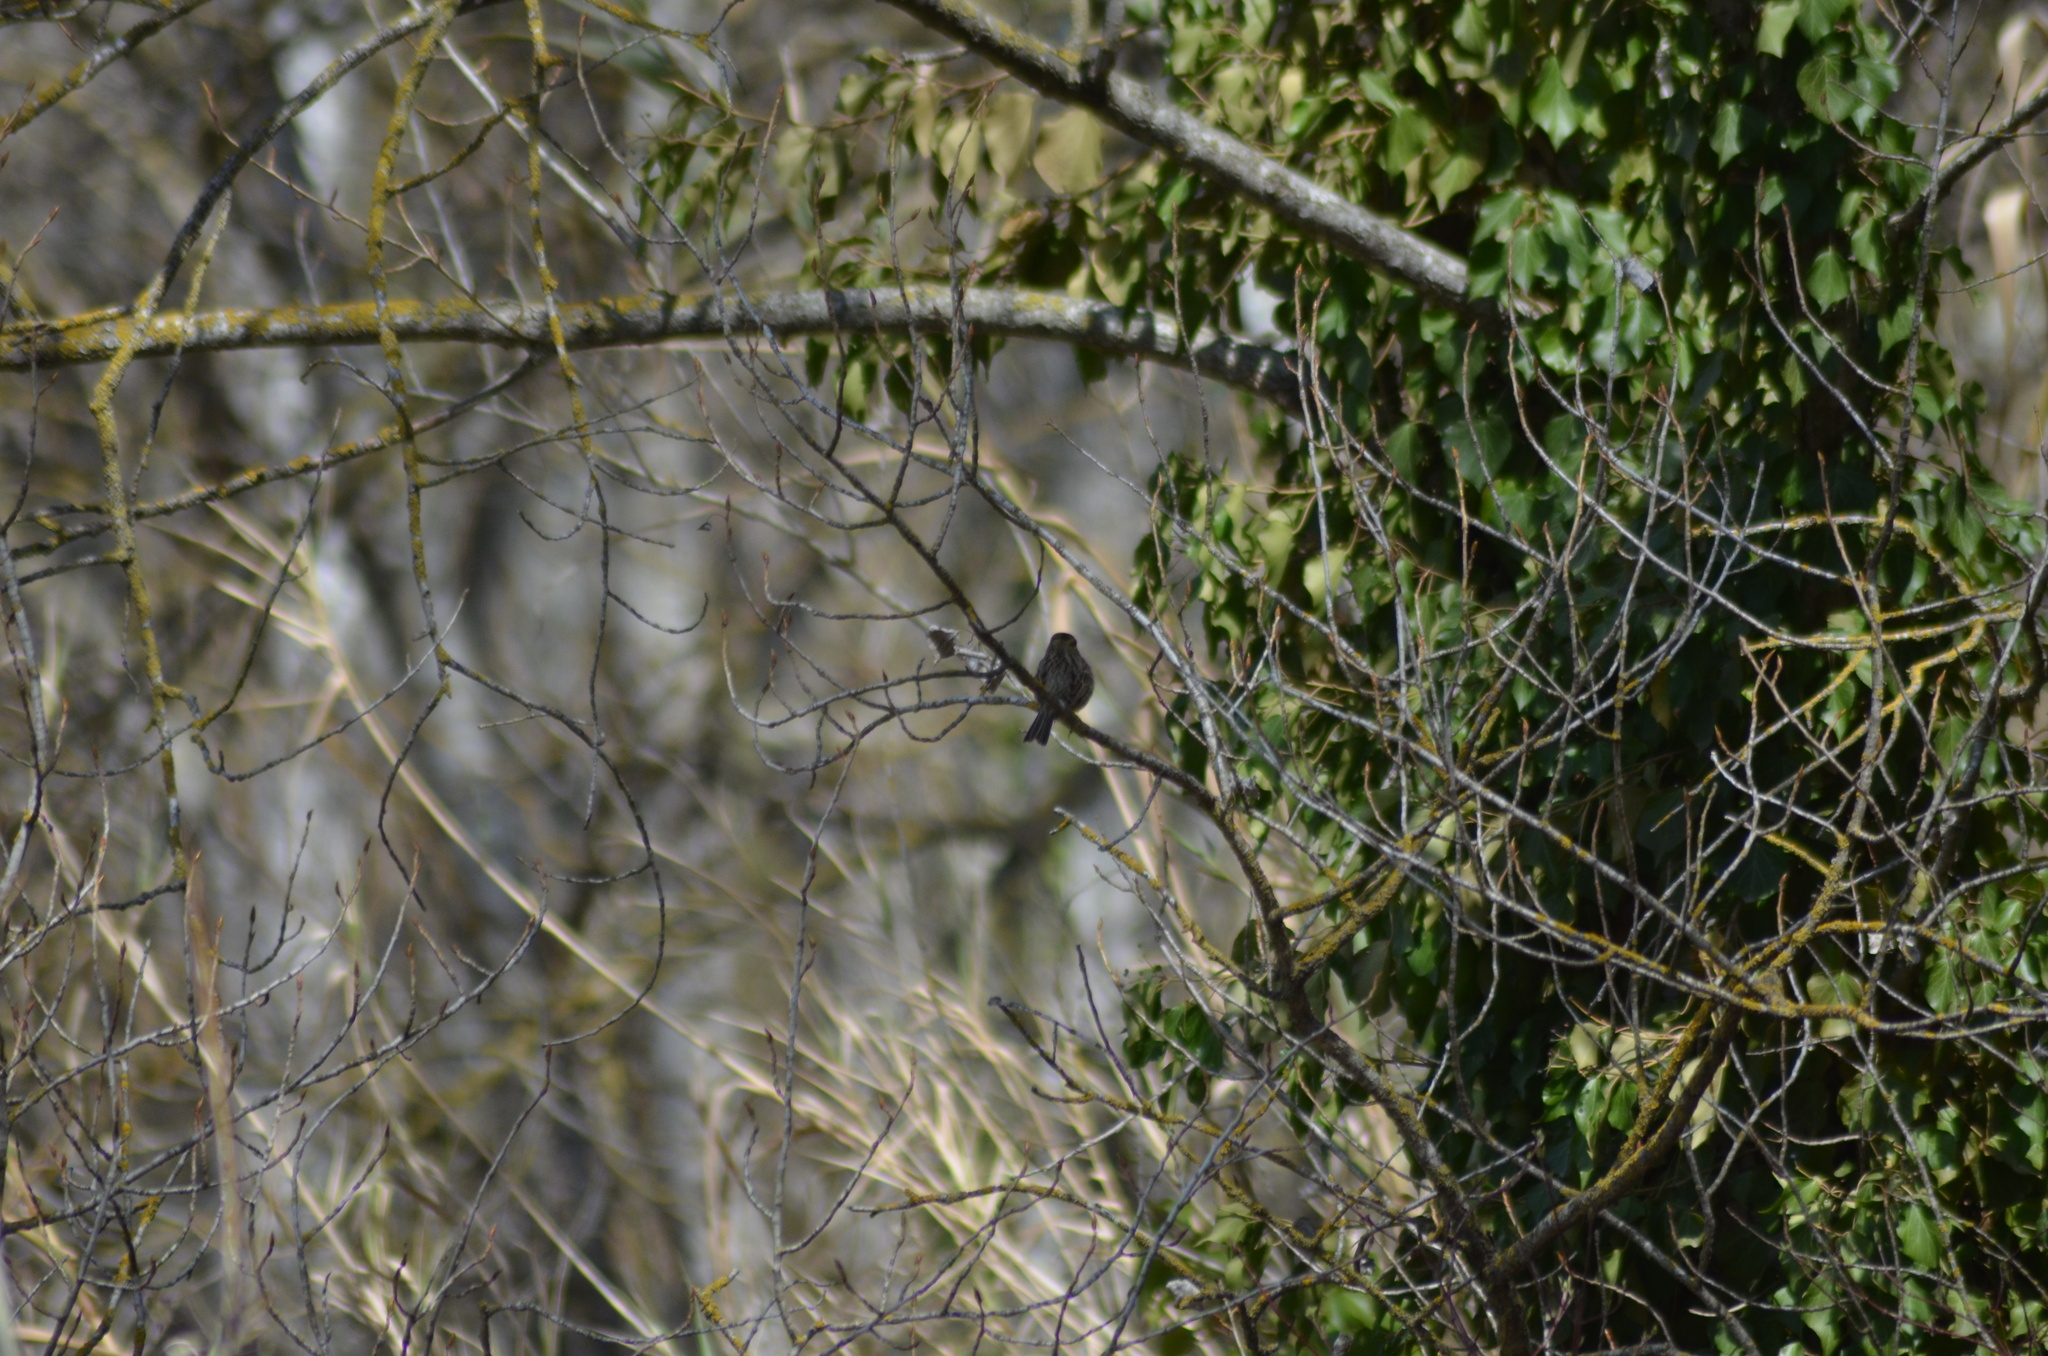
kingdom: Animalia
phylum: Chordata
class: Aves
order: Passeriformes
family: Emberizidae
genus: Emberiza
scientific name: Emberiza cirlus
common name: Cirl bunting
